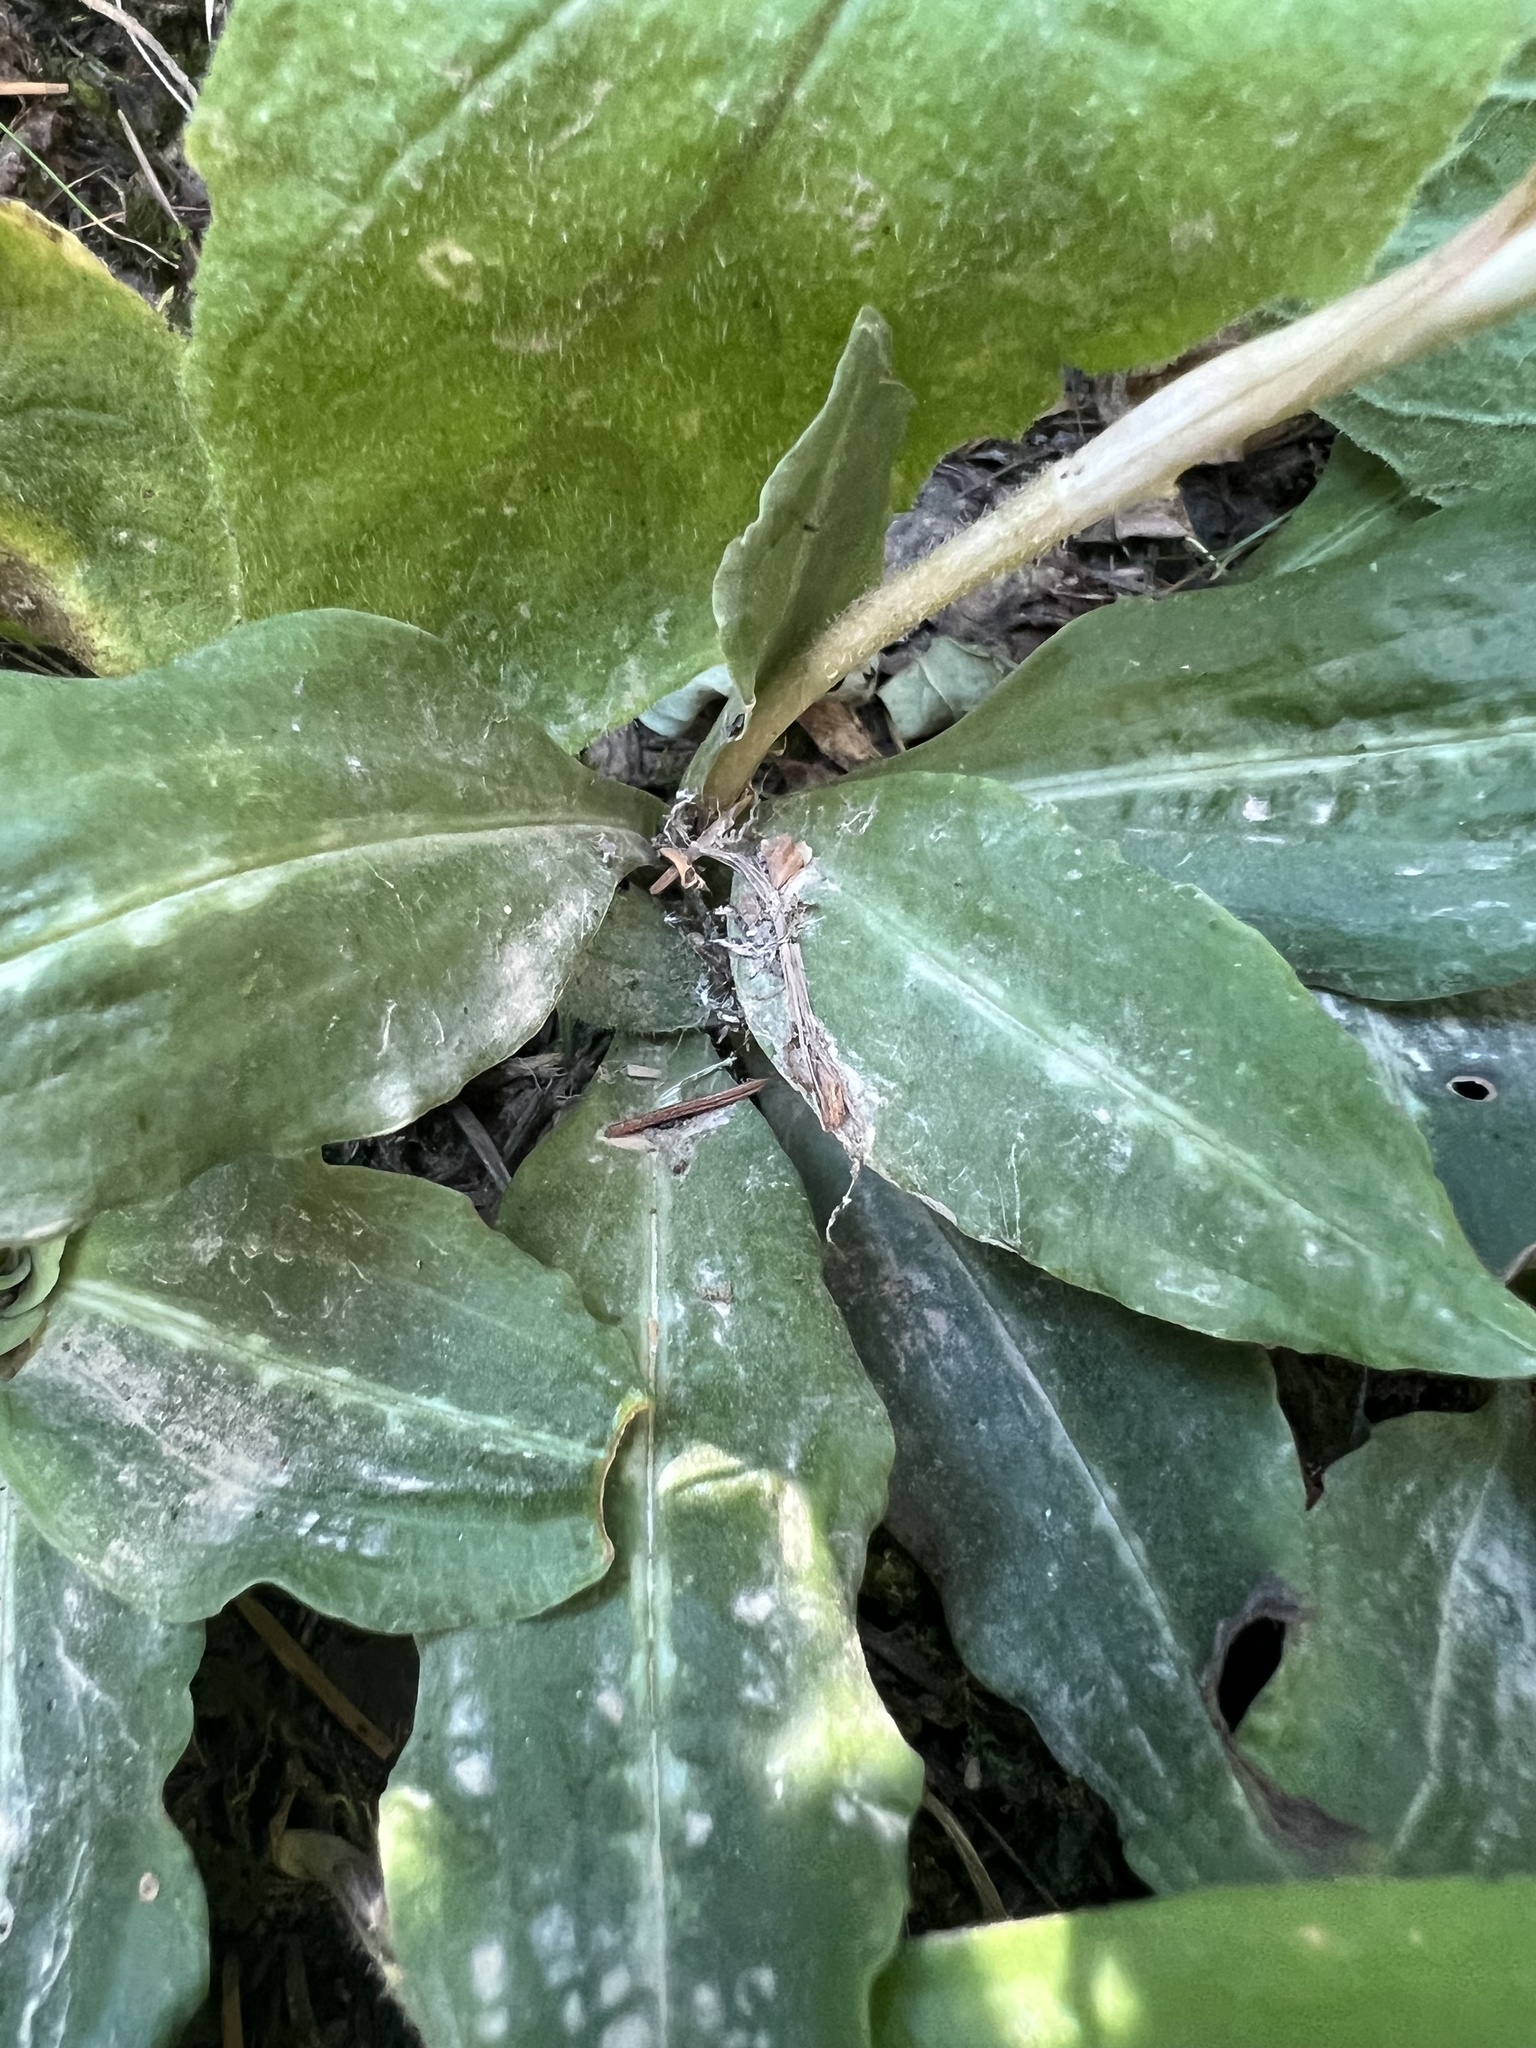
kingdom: Plantae
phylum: Tracheophyta
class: Liliopsida
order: Asparagales
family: Orchidaceae
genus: Goodyera
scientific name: Goodyera oblongifolia
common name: Giant rattlesnake-plantain
